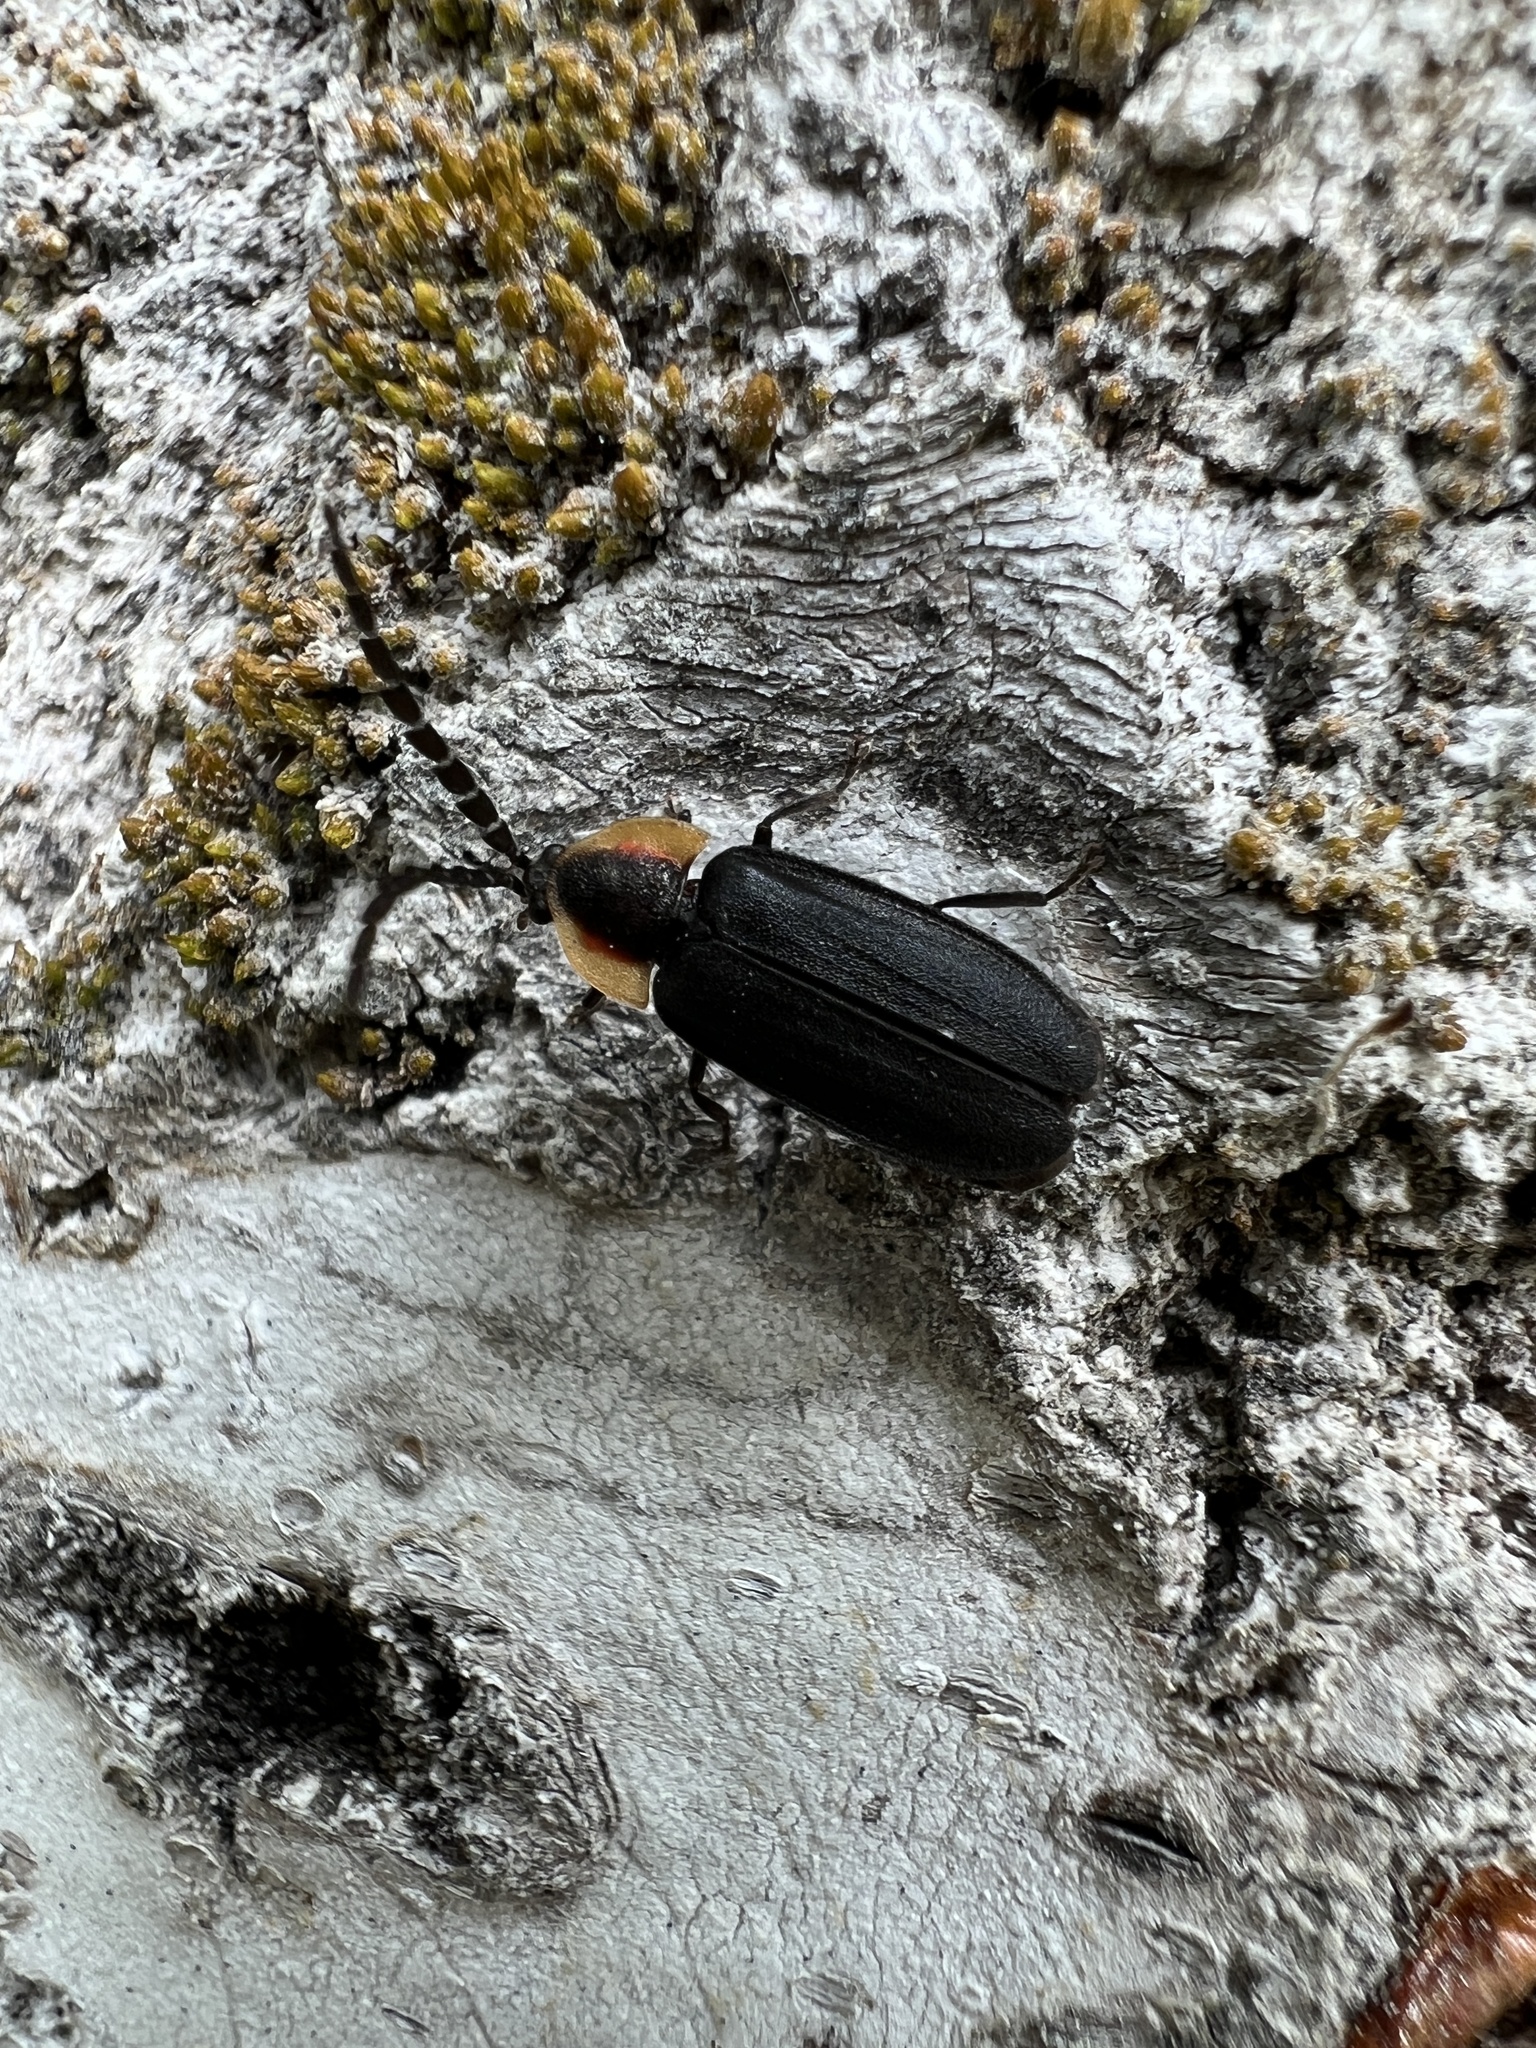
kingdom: Animalia
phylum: Arthropoda
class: Insecta
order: Coleoptera
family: Lampyridae
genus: Lucidota
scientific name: Lucidota atra
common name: Black firefly
